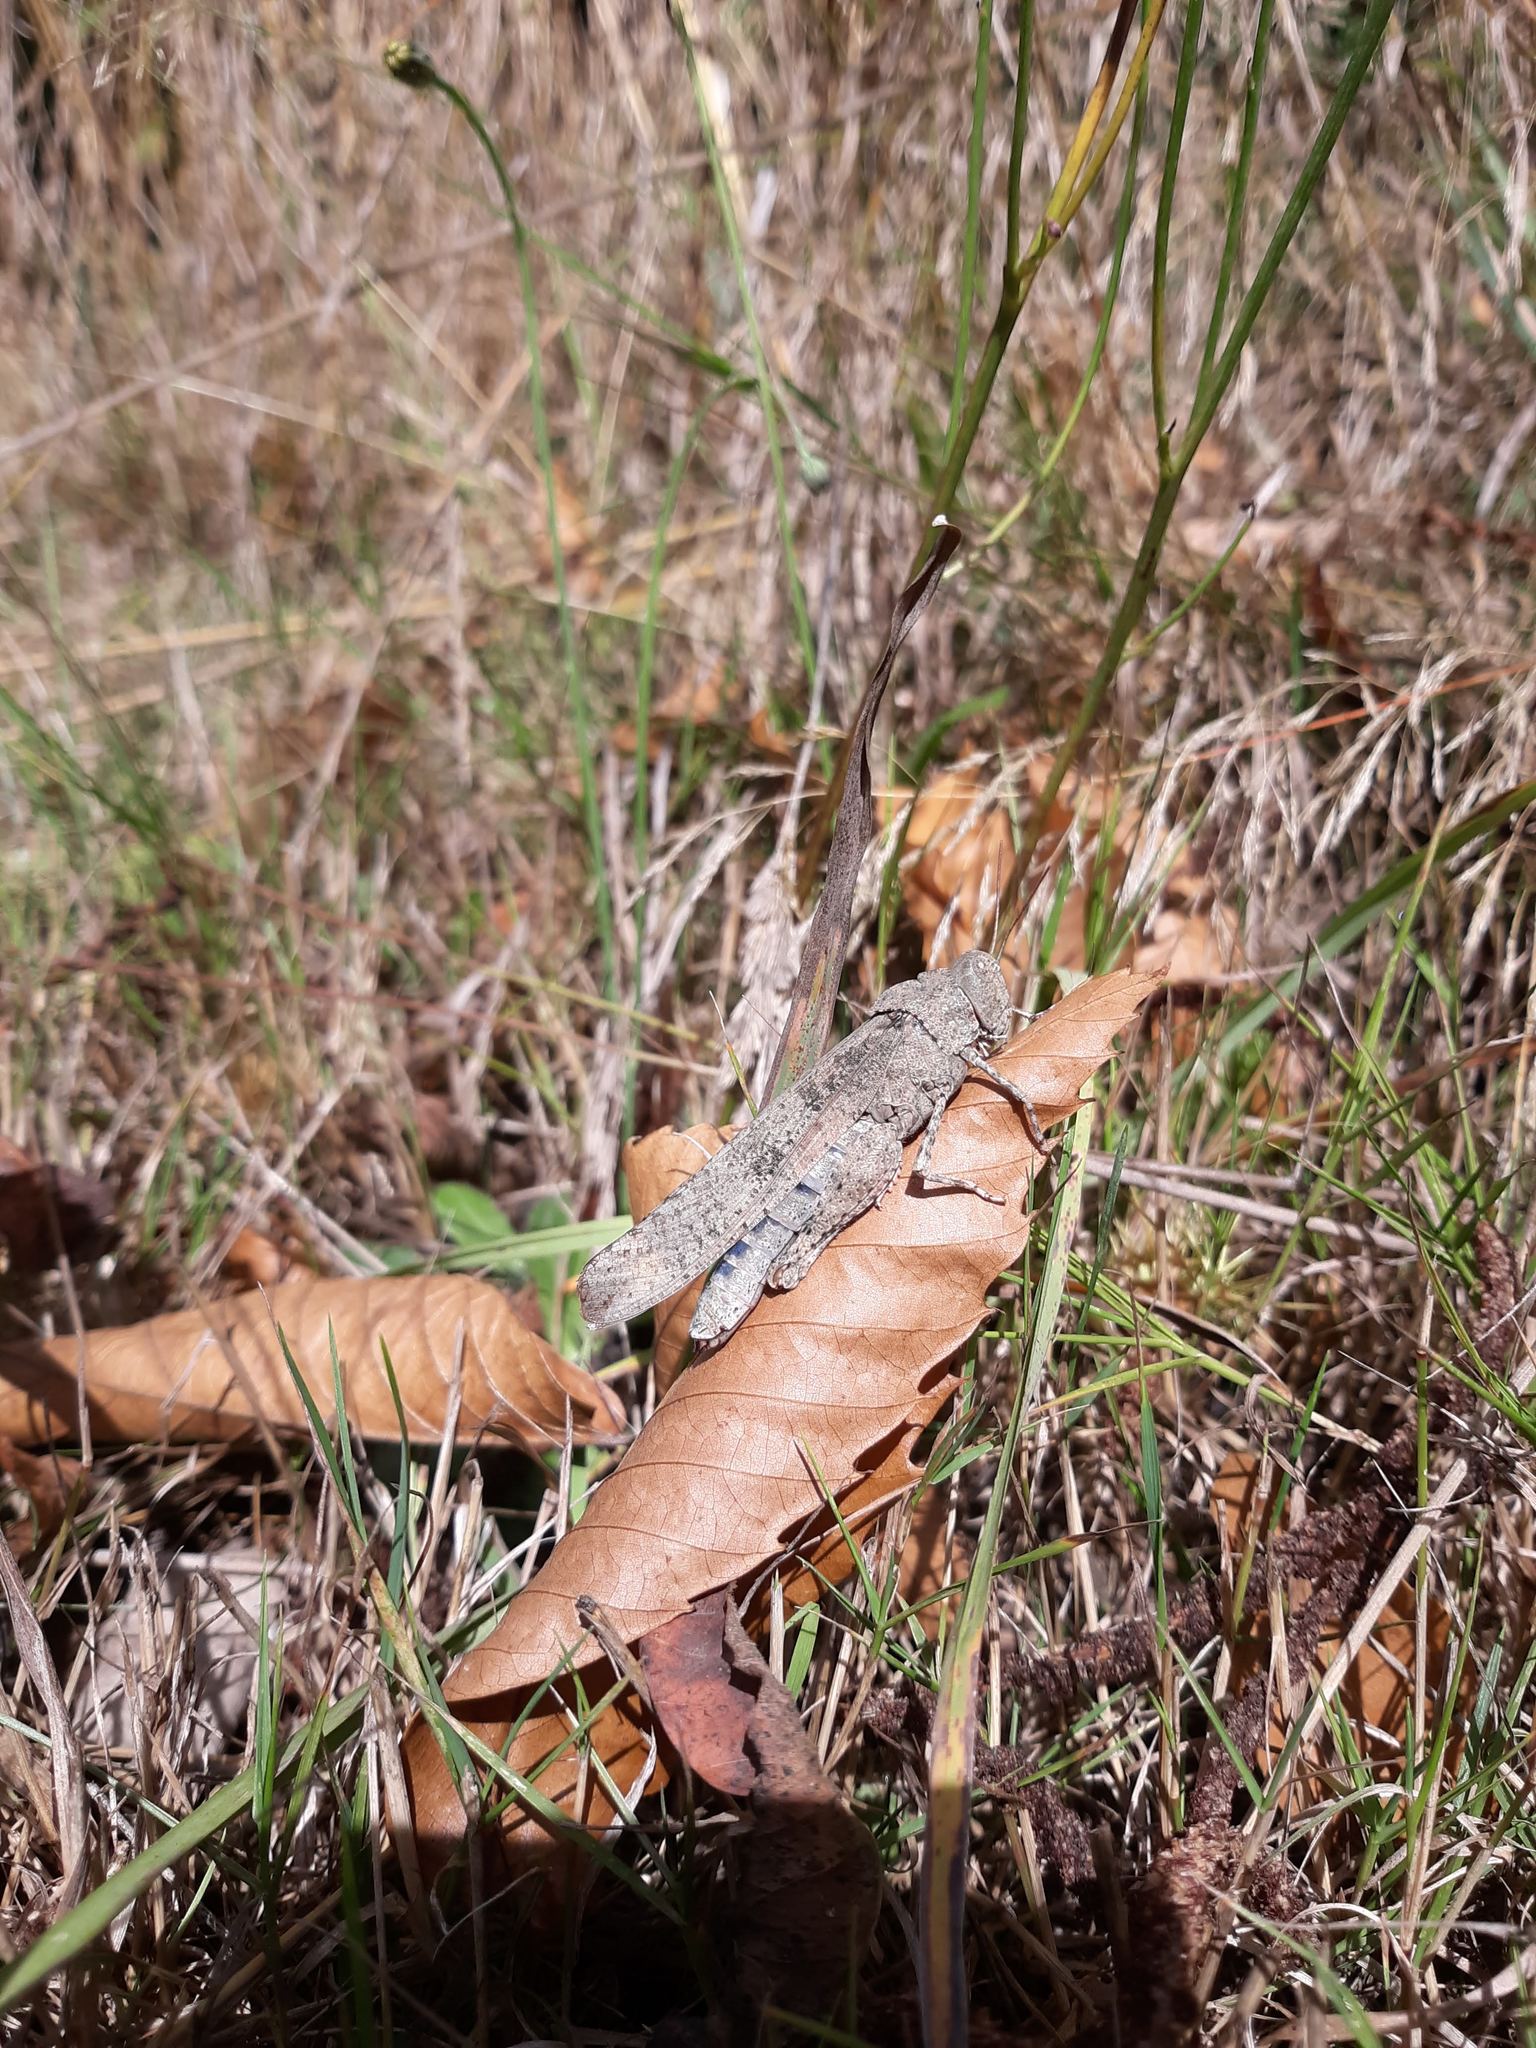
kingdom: Animalia
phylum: Arthropoda
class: Insecta
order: Orthoptera
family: Acrididae
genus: Dissosteira
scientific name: Dissosteira carolina
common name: Carolina grasshopper
